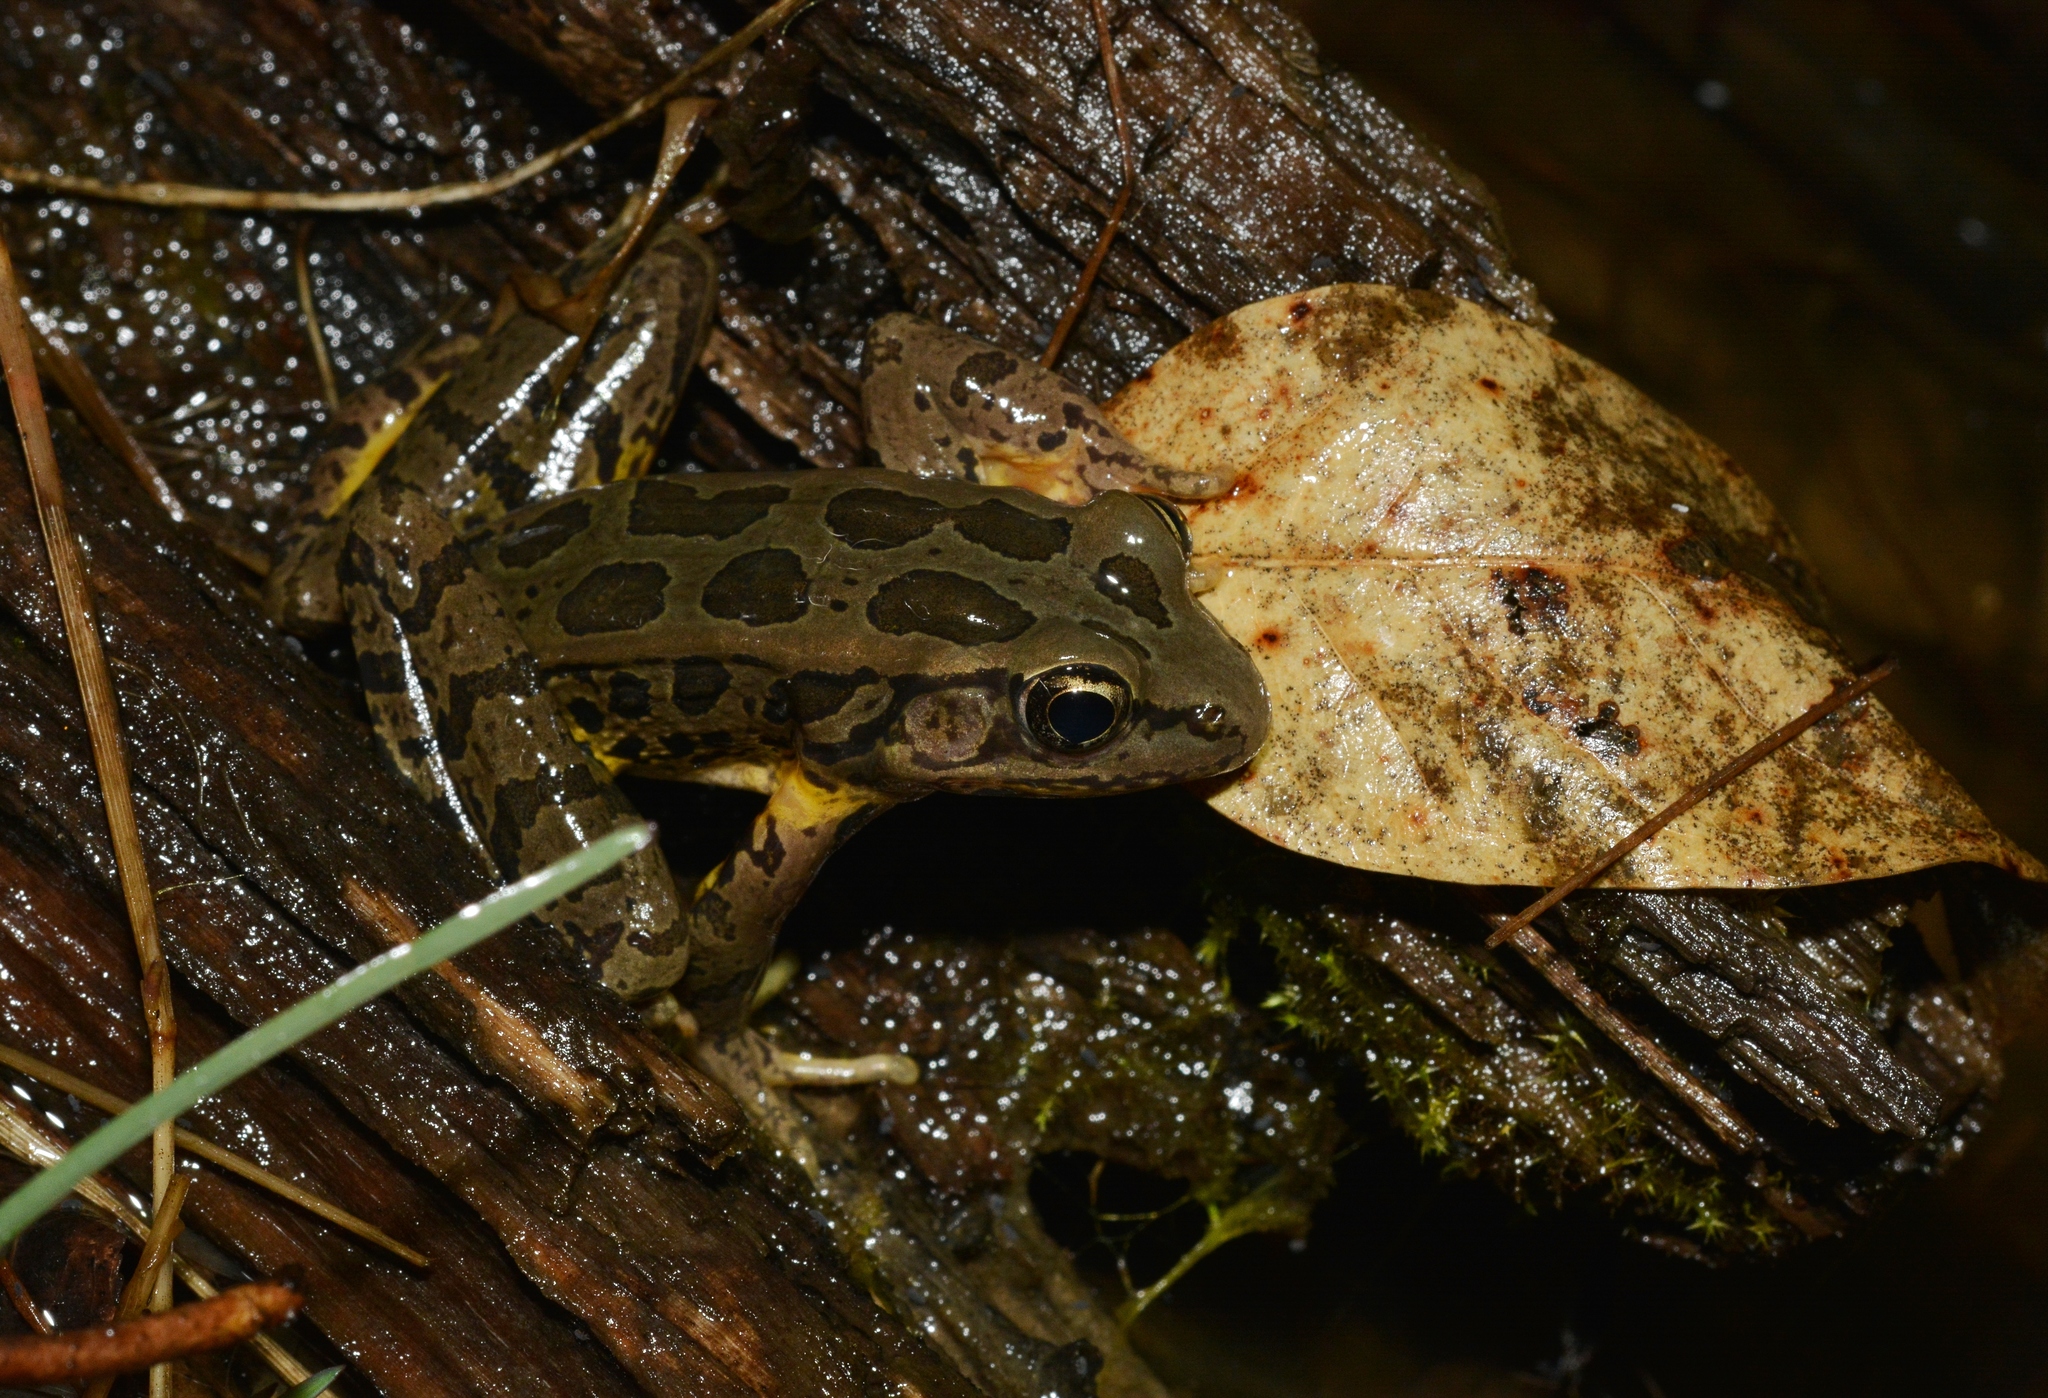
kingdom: Animalia
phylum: Chordata
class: Amphibia
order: Anura
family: Ranidae
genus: Lithobates
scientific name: Lithobates palustris
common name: Pickerel frog
